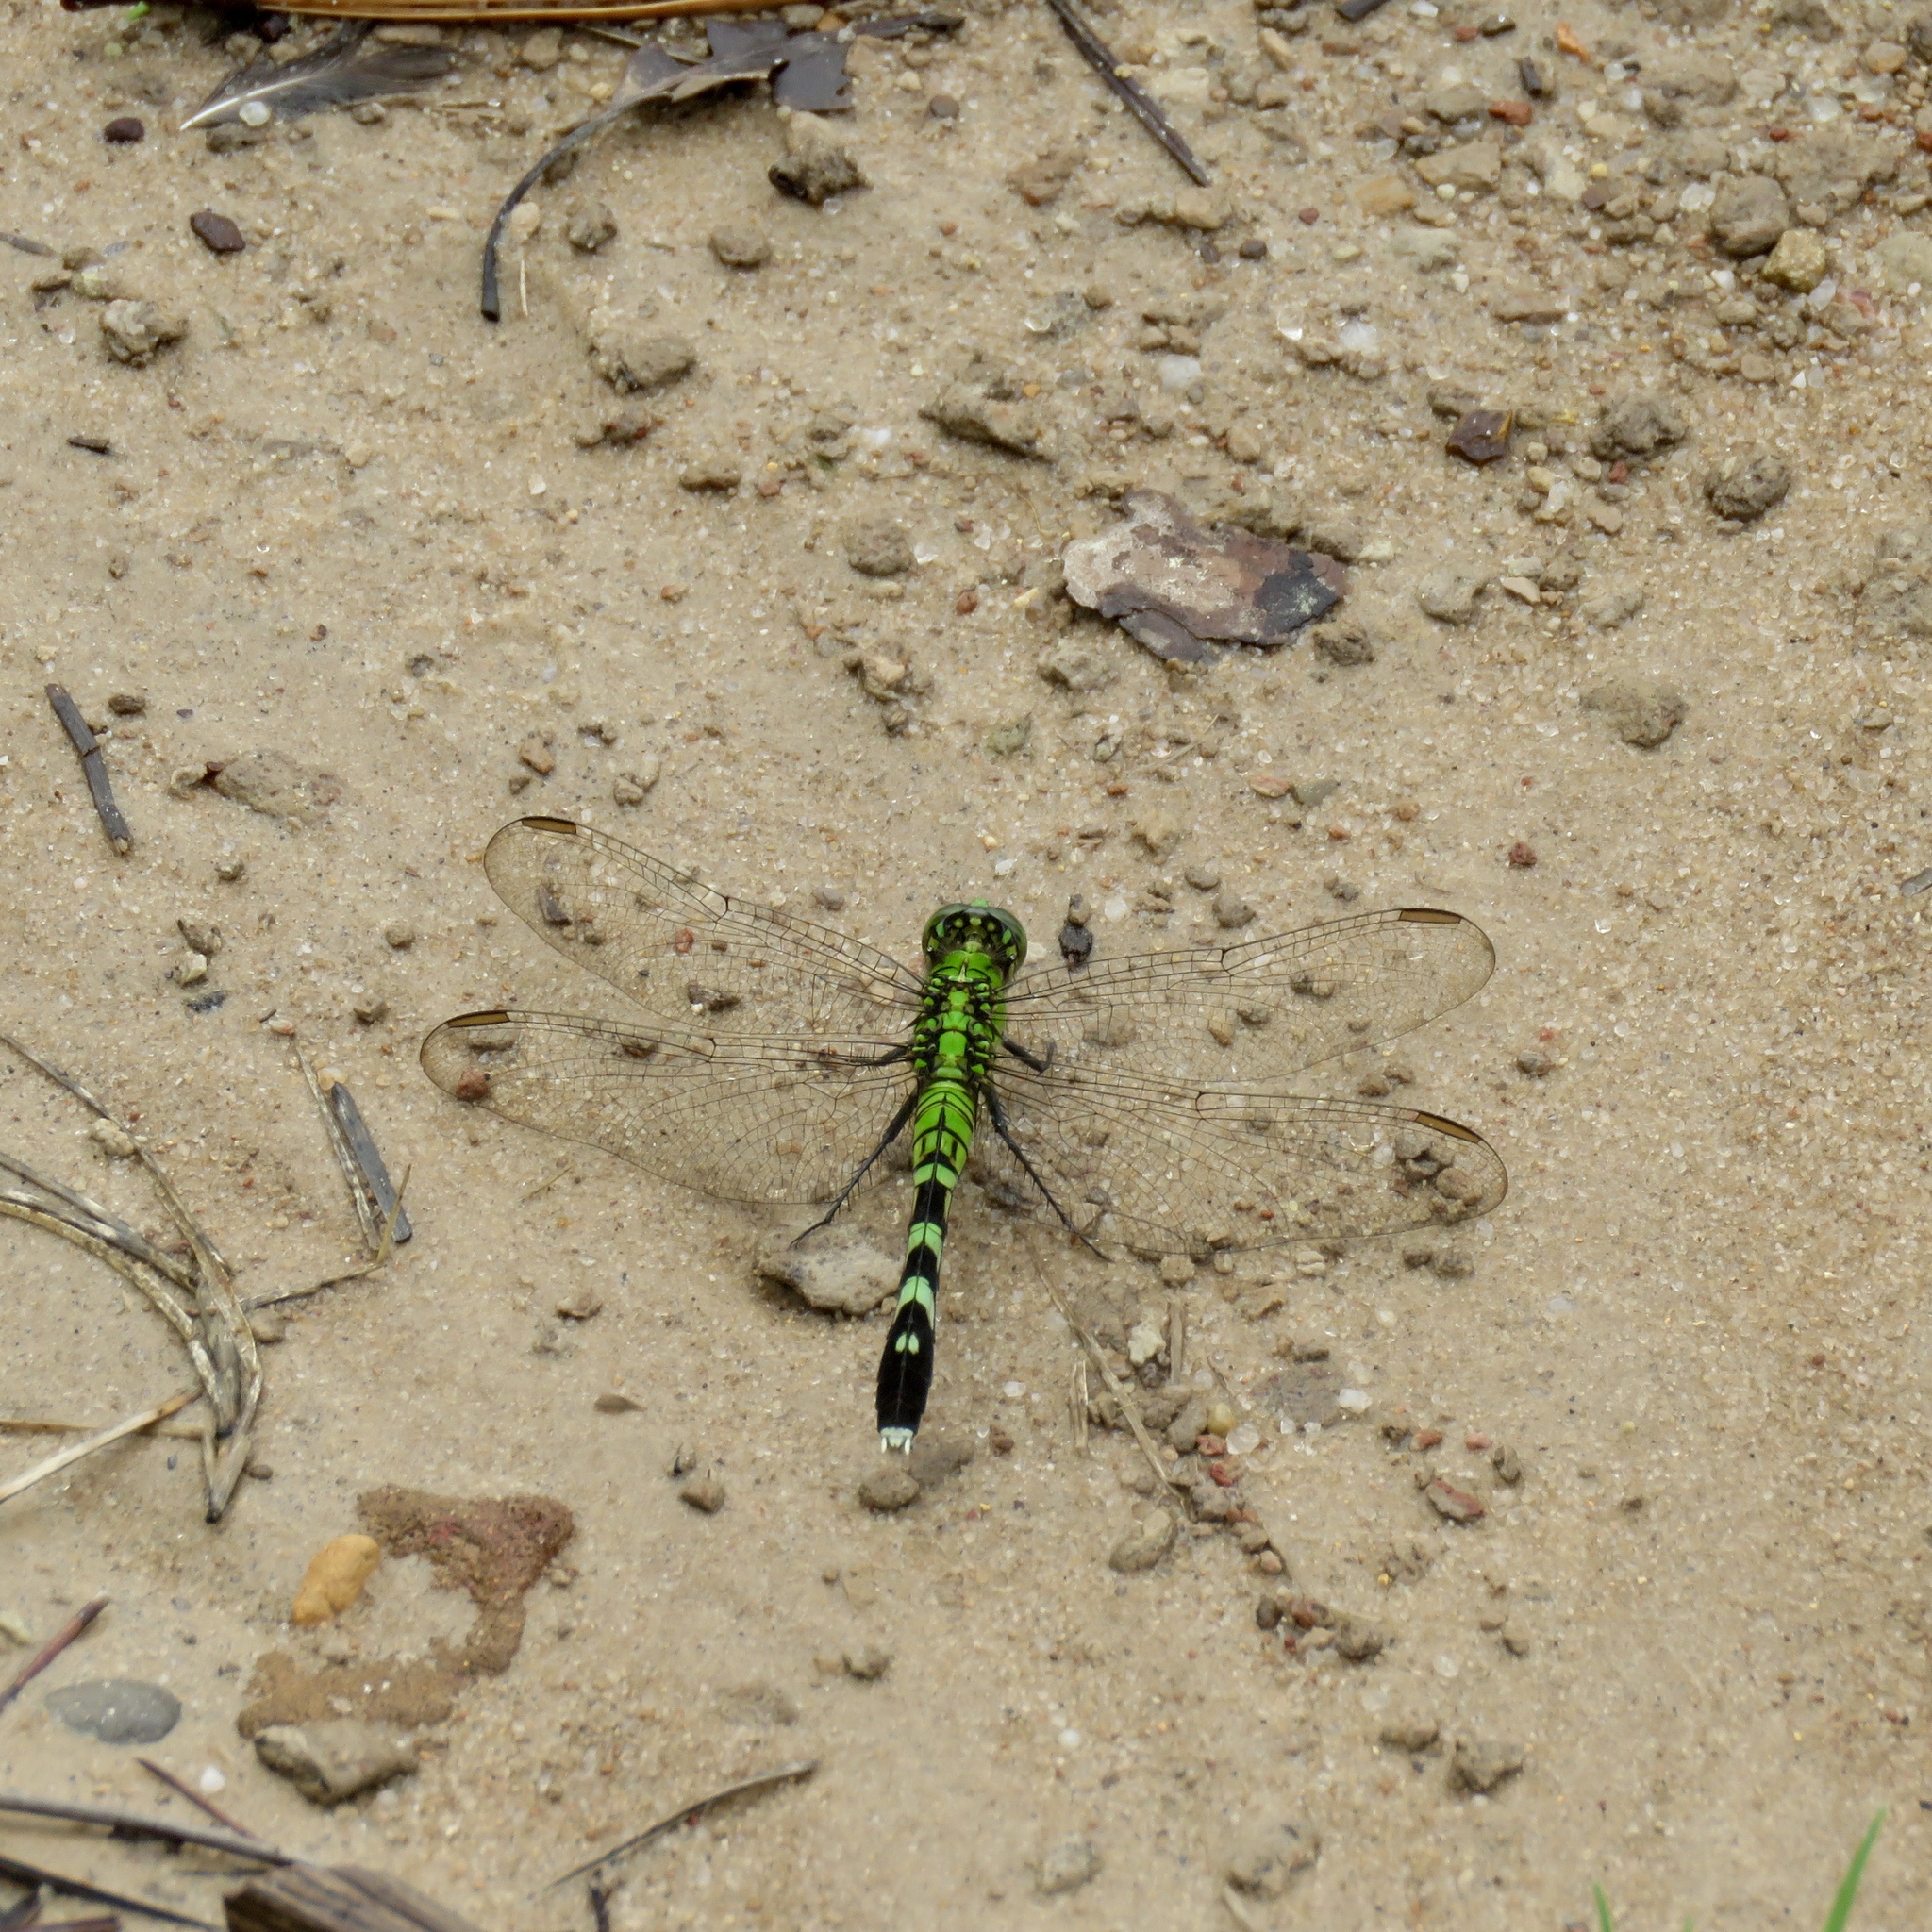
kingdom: Animalia
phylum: Arthropoda
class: Insecta
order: Odonata
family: Libellulidae
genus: Erythemis
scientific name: Erythemis simplicicollis
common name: Eastern pondhawk
